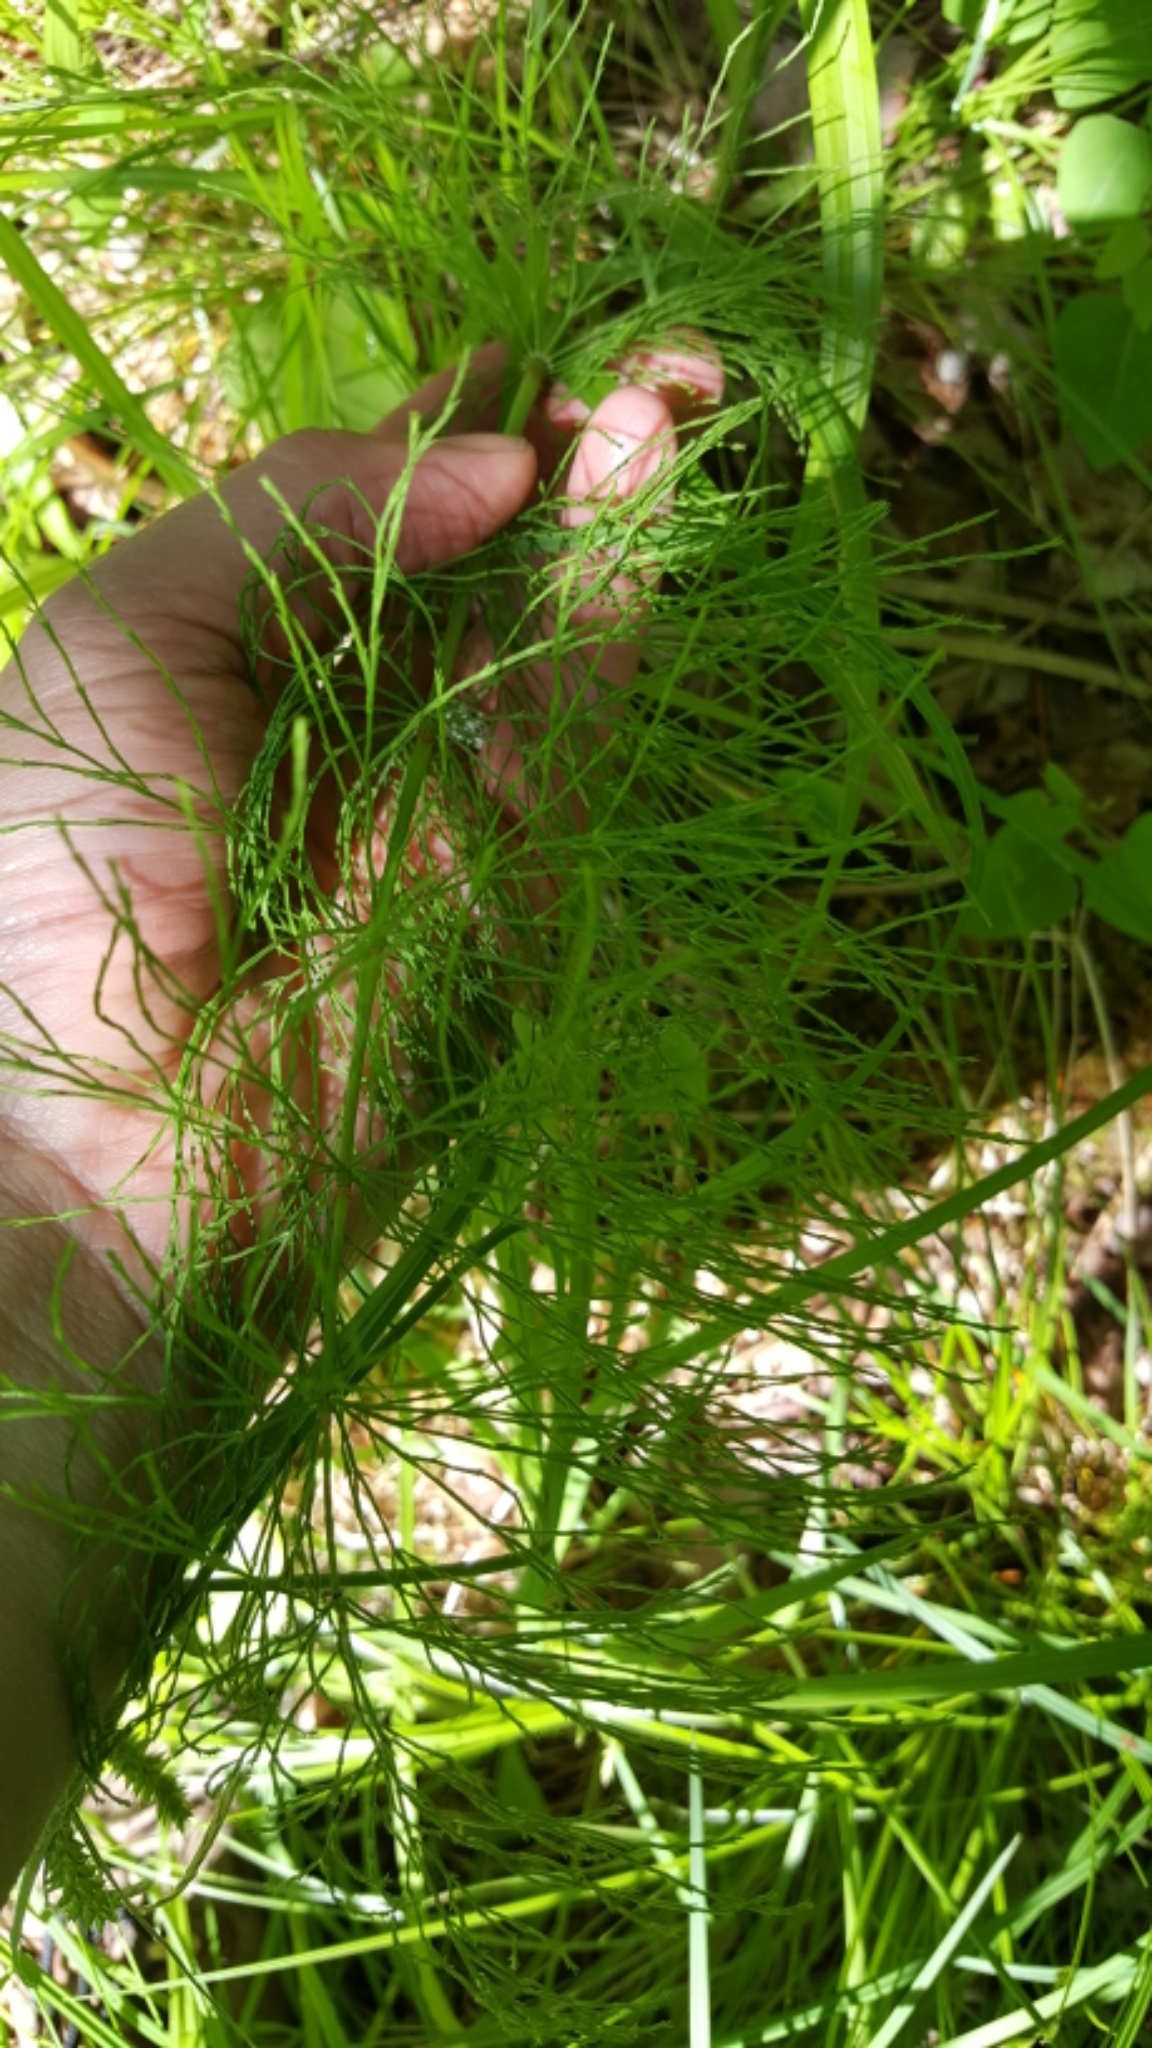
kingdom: Plantae
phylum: Tracheophyta
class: Polypodiopsida
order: Equisetales
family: Equisetaceae
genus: Equisetum
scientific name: Equisetum sylvaticum
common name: Wood horsetail
